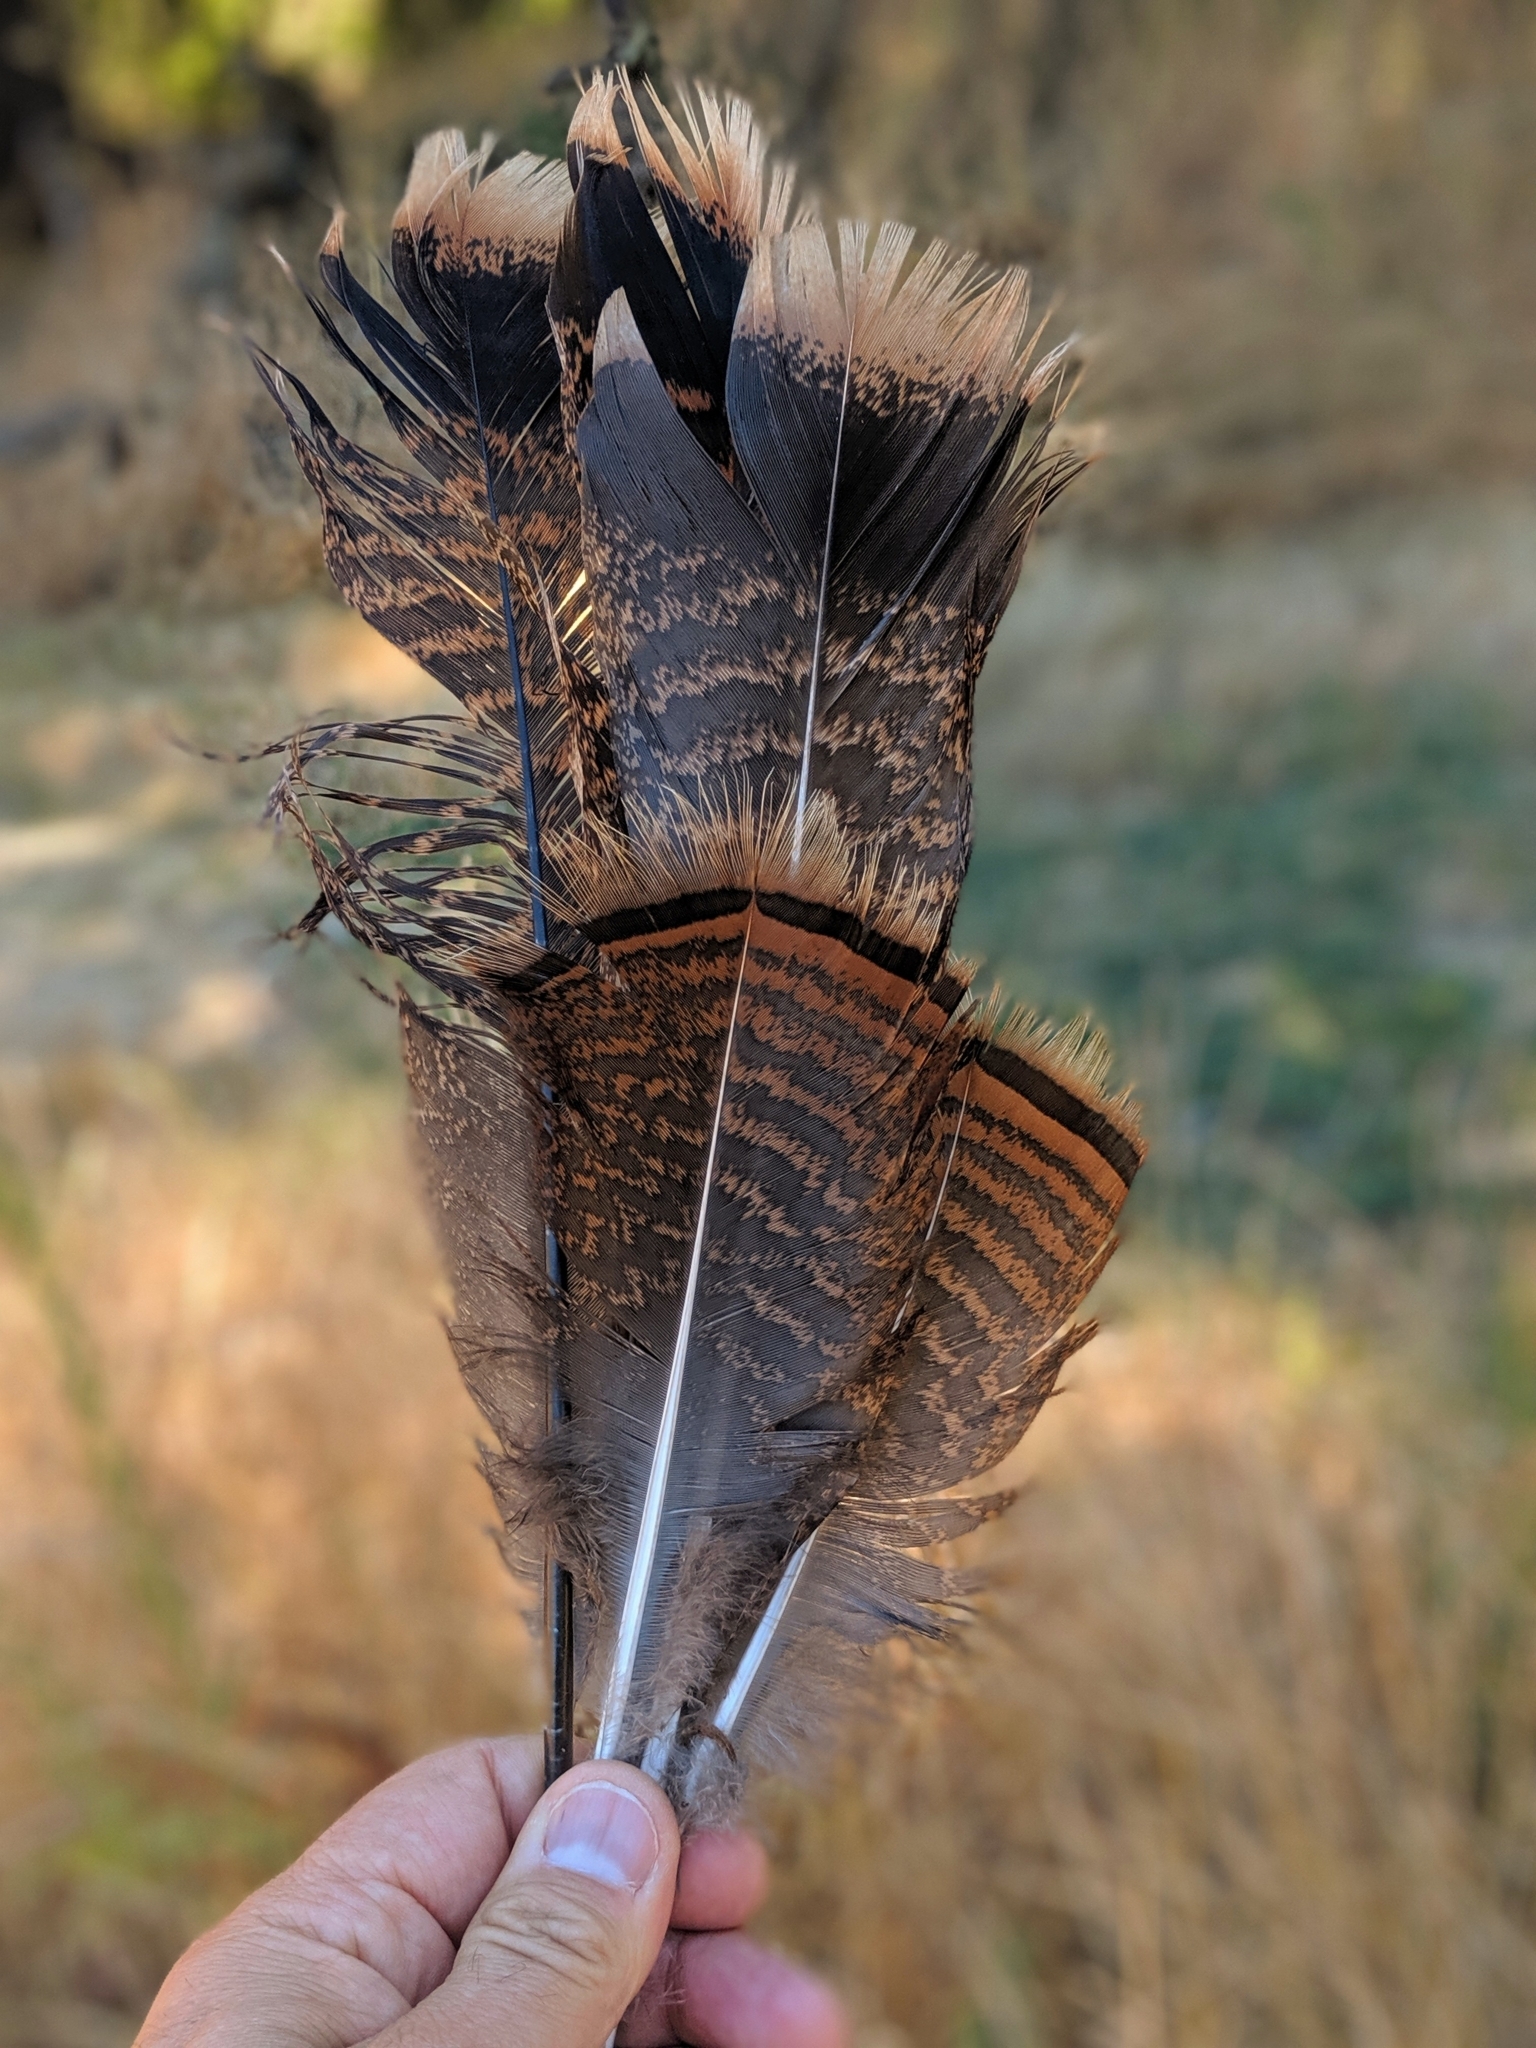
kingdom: Animalia
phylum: Chordata
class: Aves
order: Galliformes
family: Phasianidae
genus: Meleagris
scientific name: Meleagris gallopavo
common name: Wild turkey
